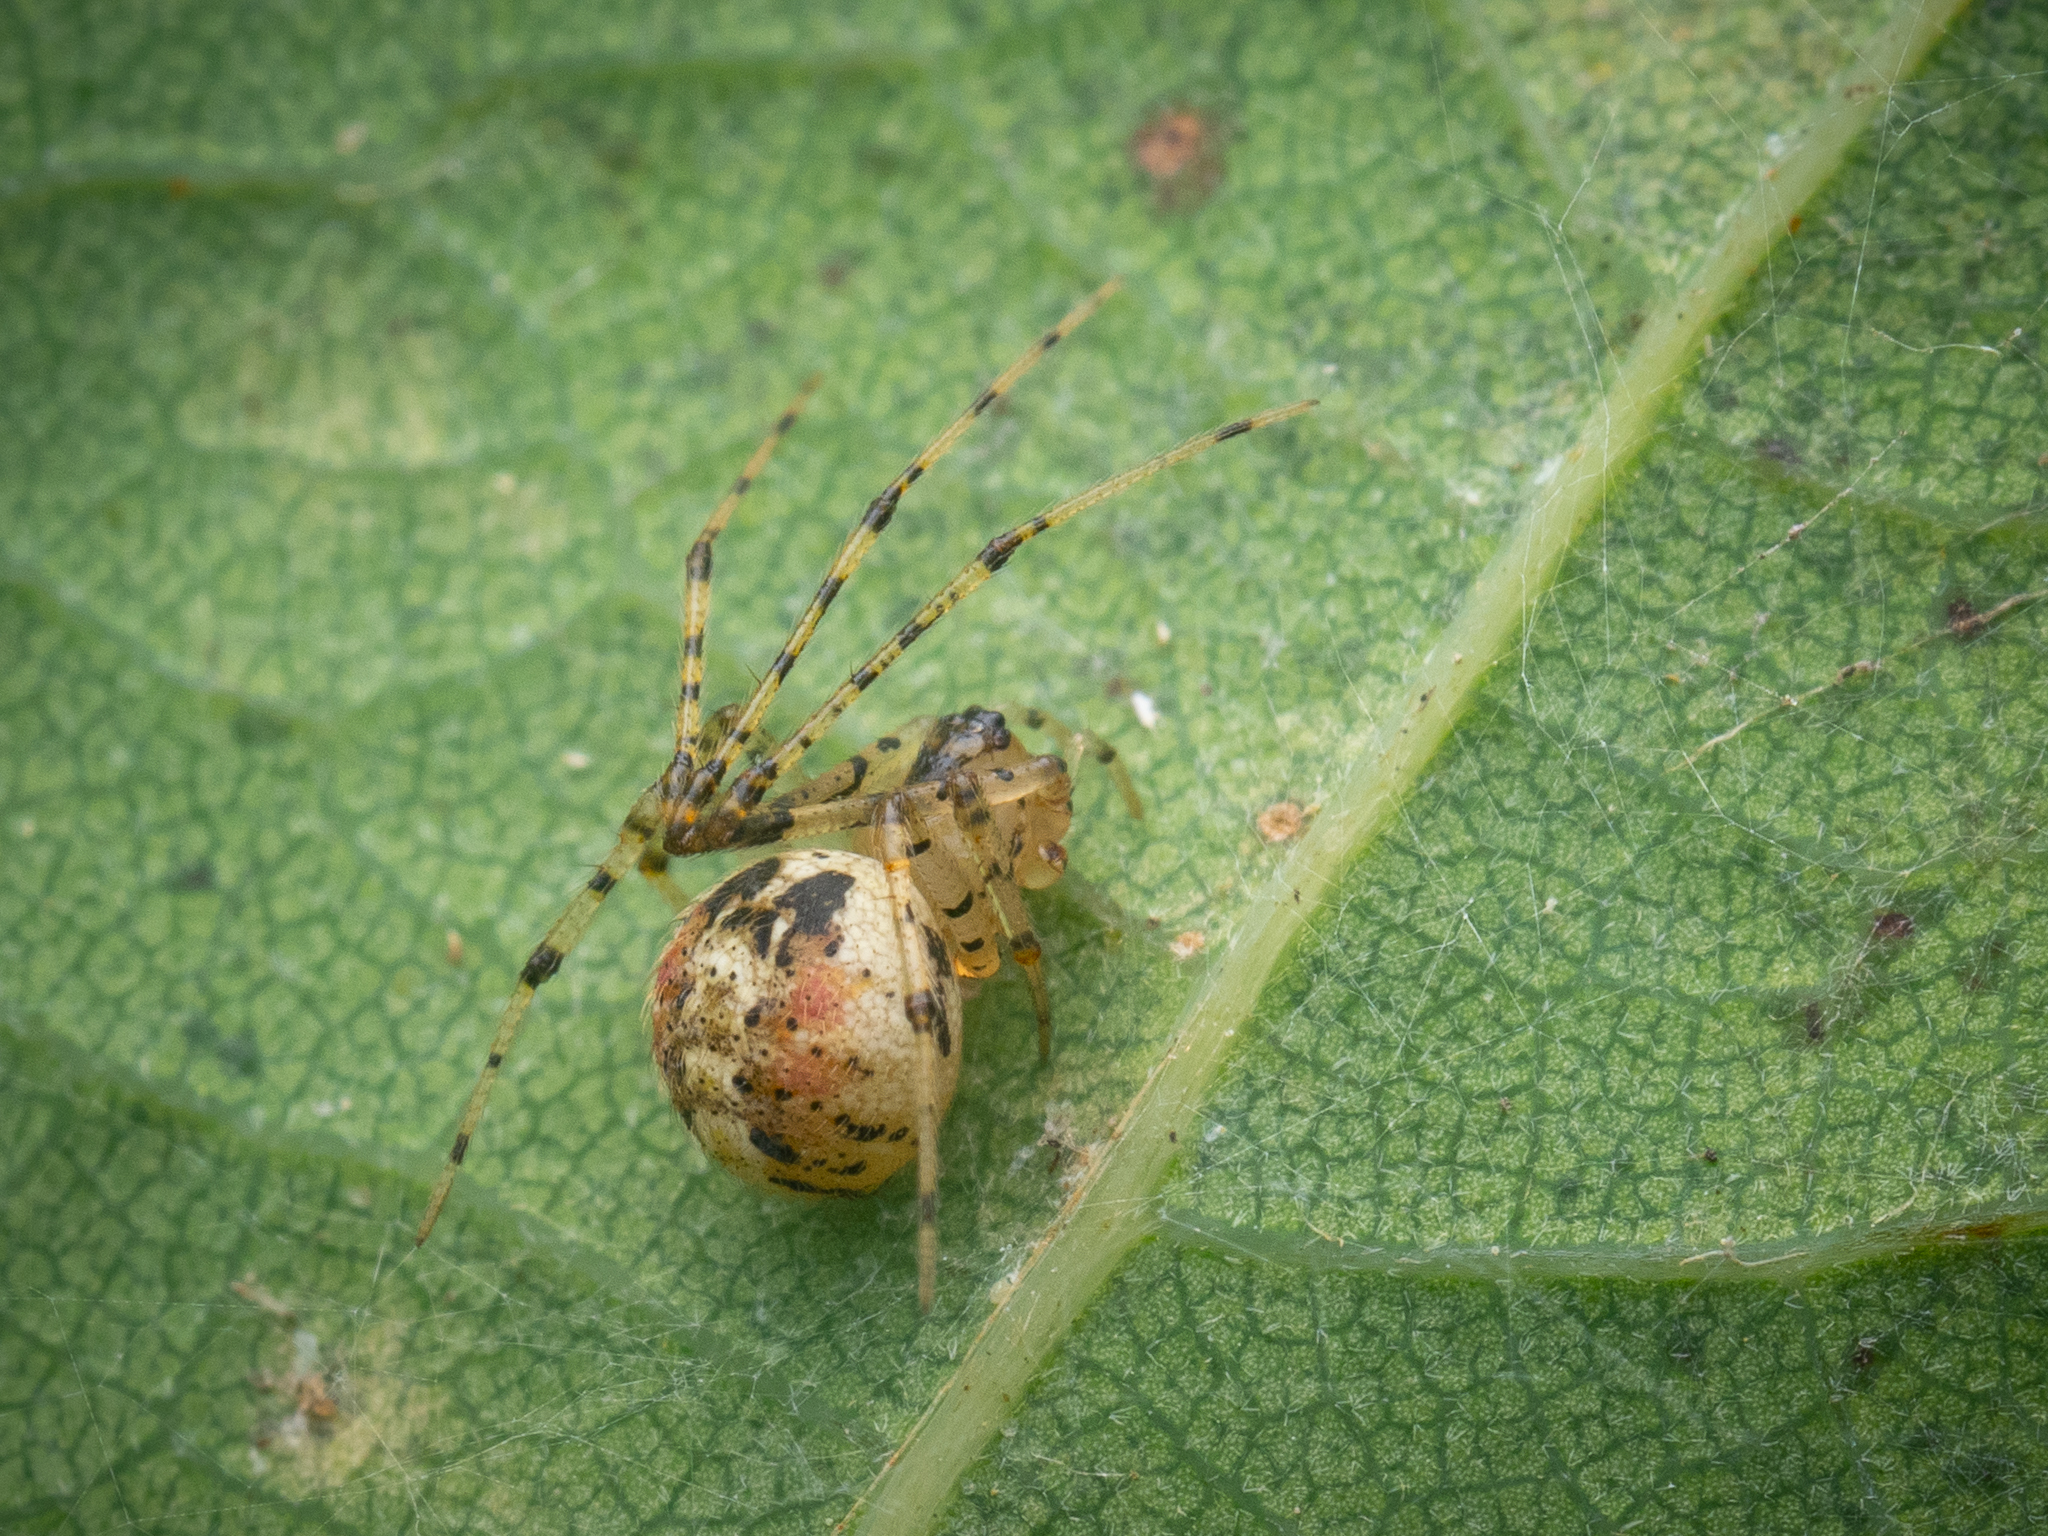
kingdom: Animalia
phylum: Arthropoda
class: Arachnida
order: Araneae
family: Theridiidae
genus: Platnickina
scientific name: Platnickina tincta
